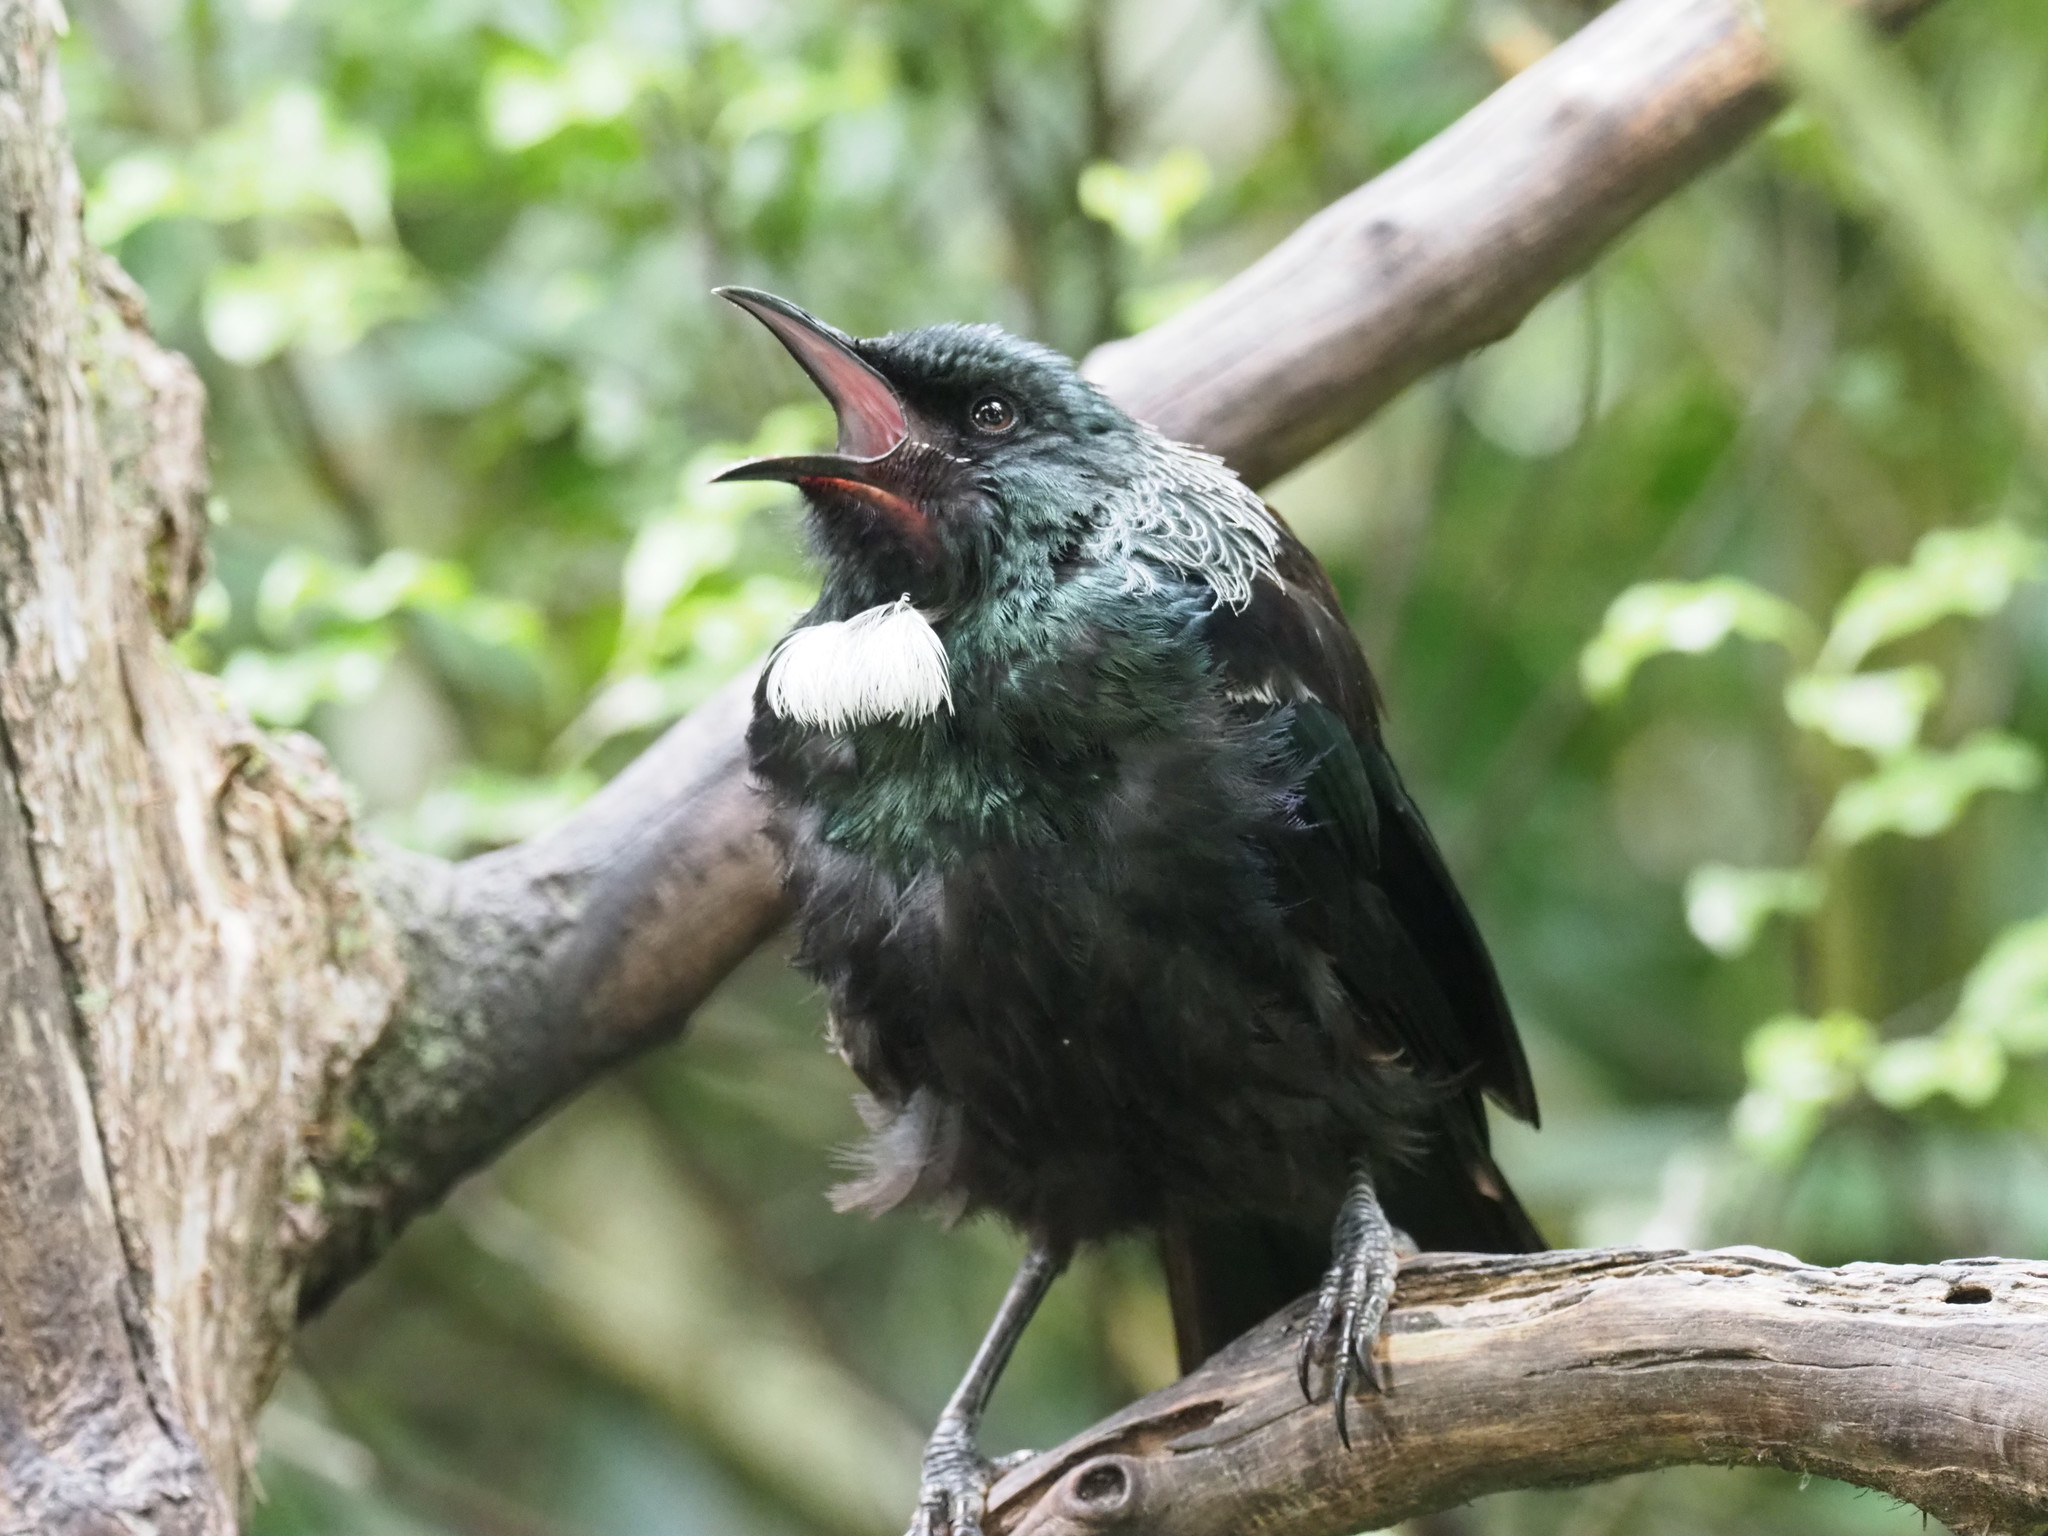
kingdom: Animalia
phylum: Chordata
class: Aves
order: Passeriformes
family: Meliphagidae
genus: Prosthemadera
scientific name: Prosthemadera novaeseelandiae
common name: Tui
